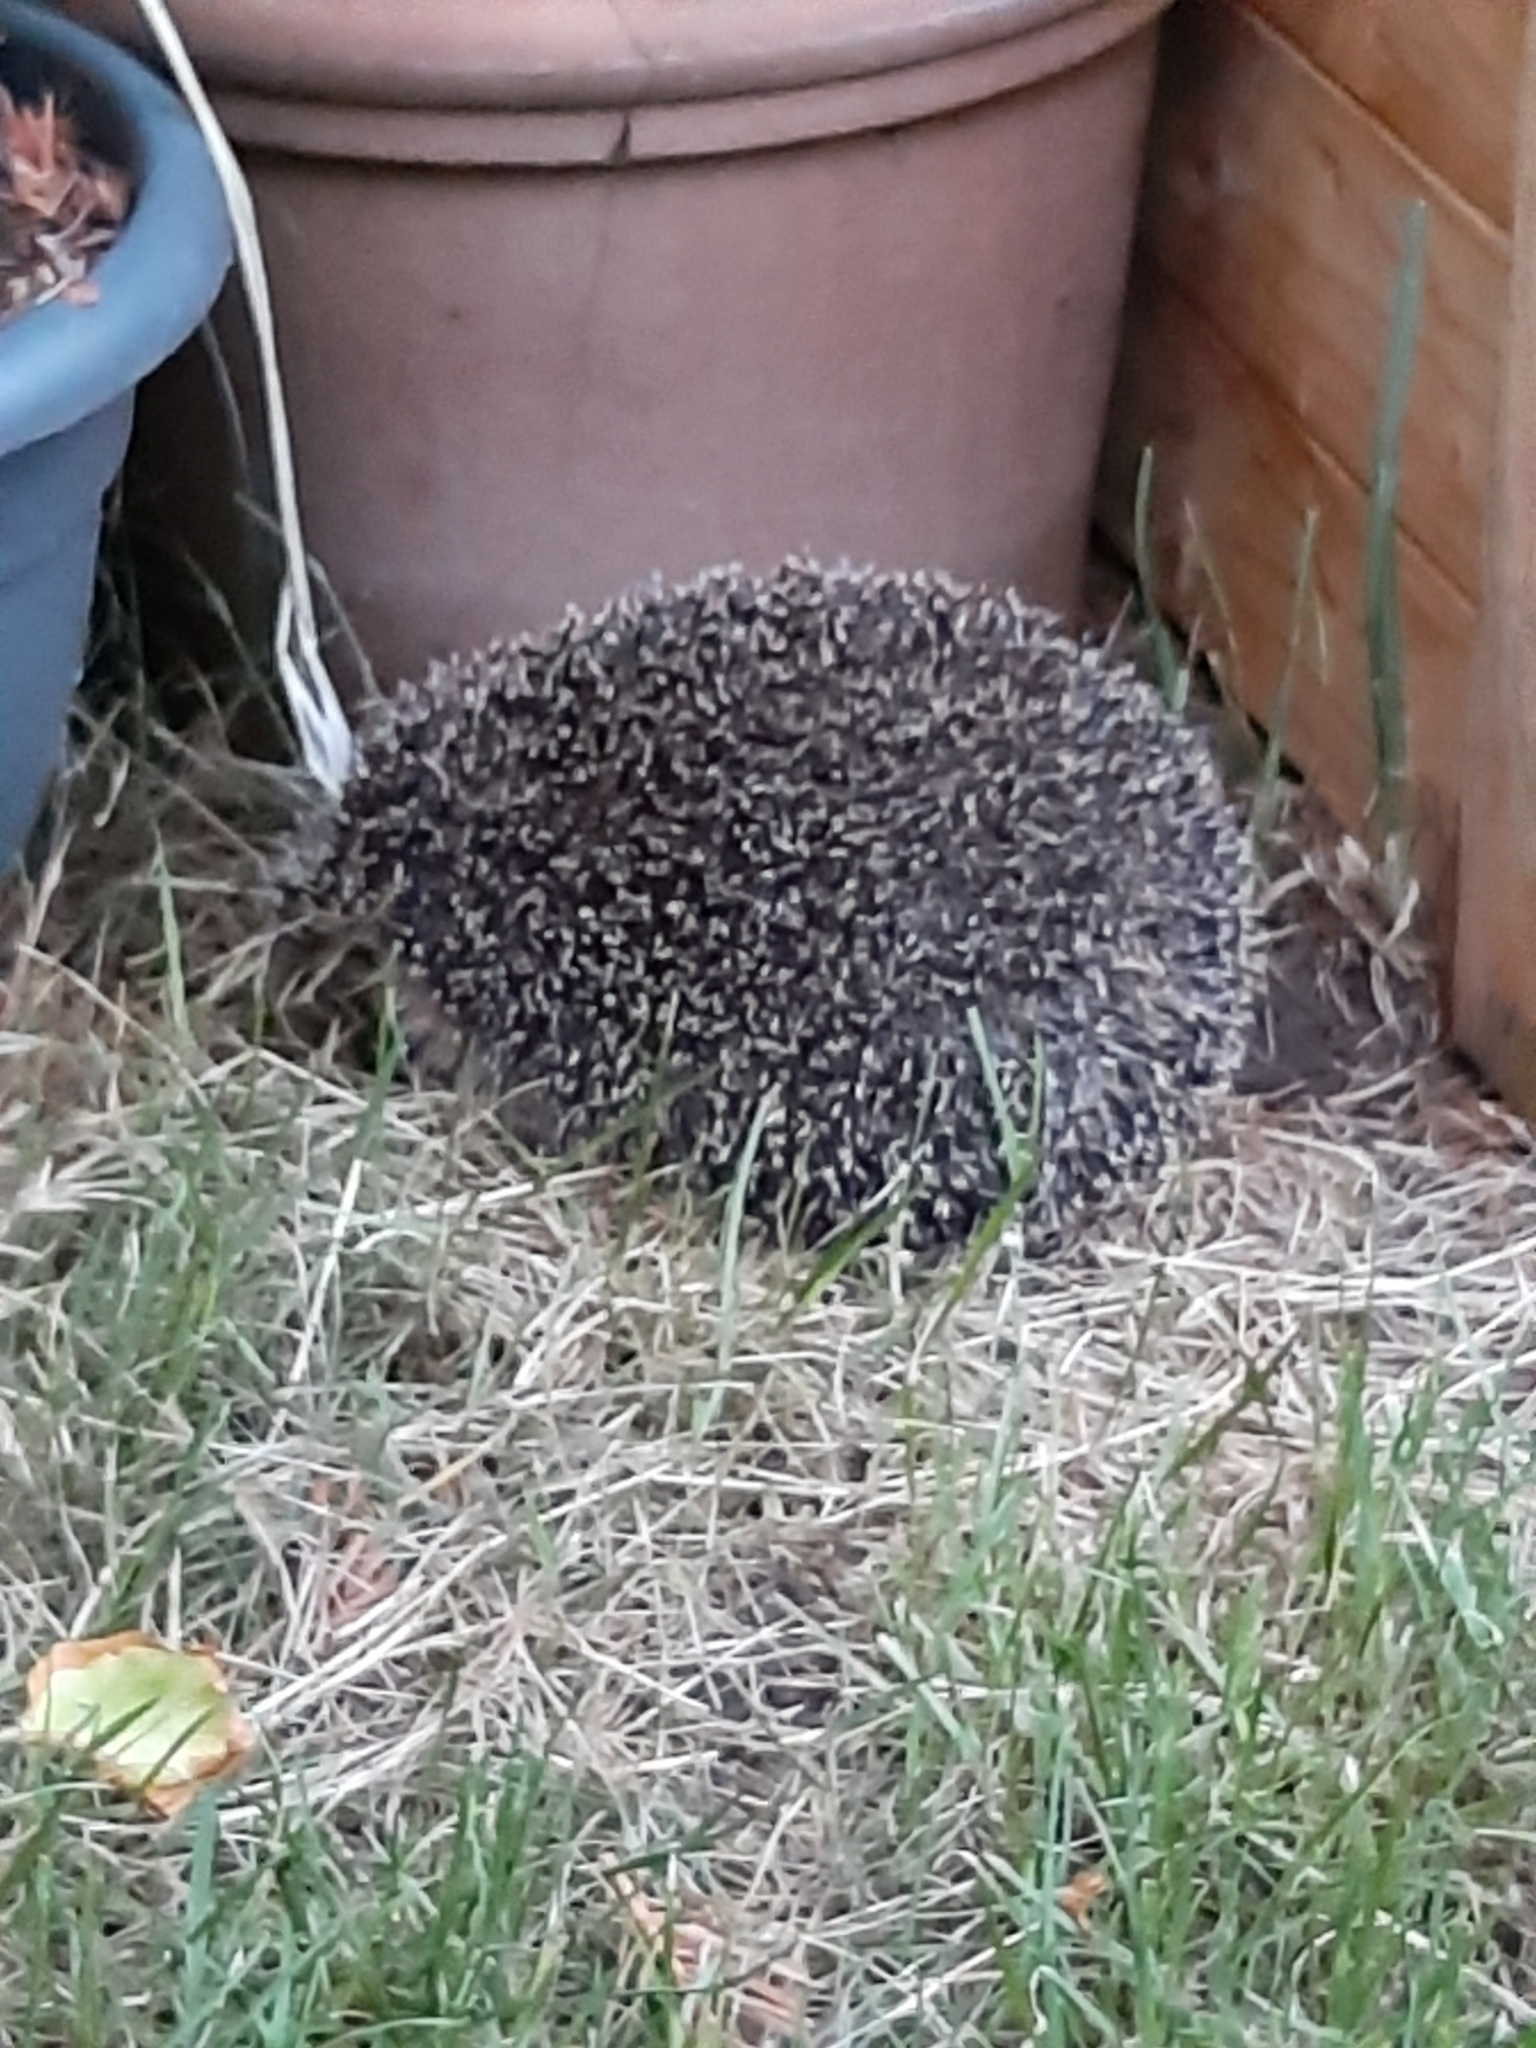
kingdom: Animalia
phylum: Chordata
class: Mammalia
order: Erinaceomorpha
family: Erinaceidae
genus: Erinaceus
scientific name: Erinaceus europaeus
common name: West european hedgehog
